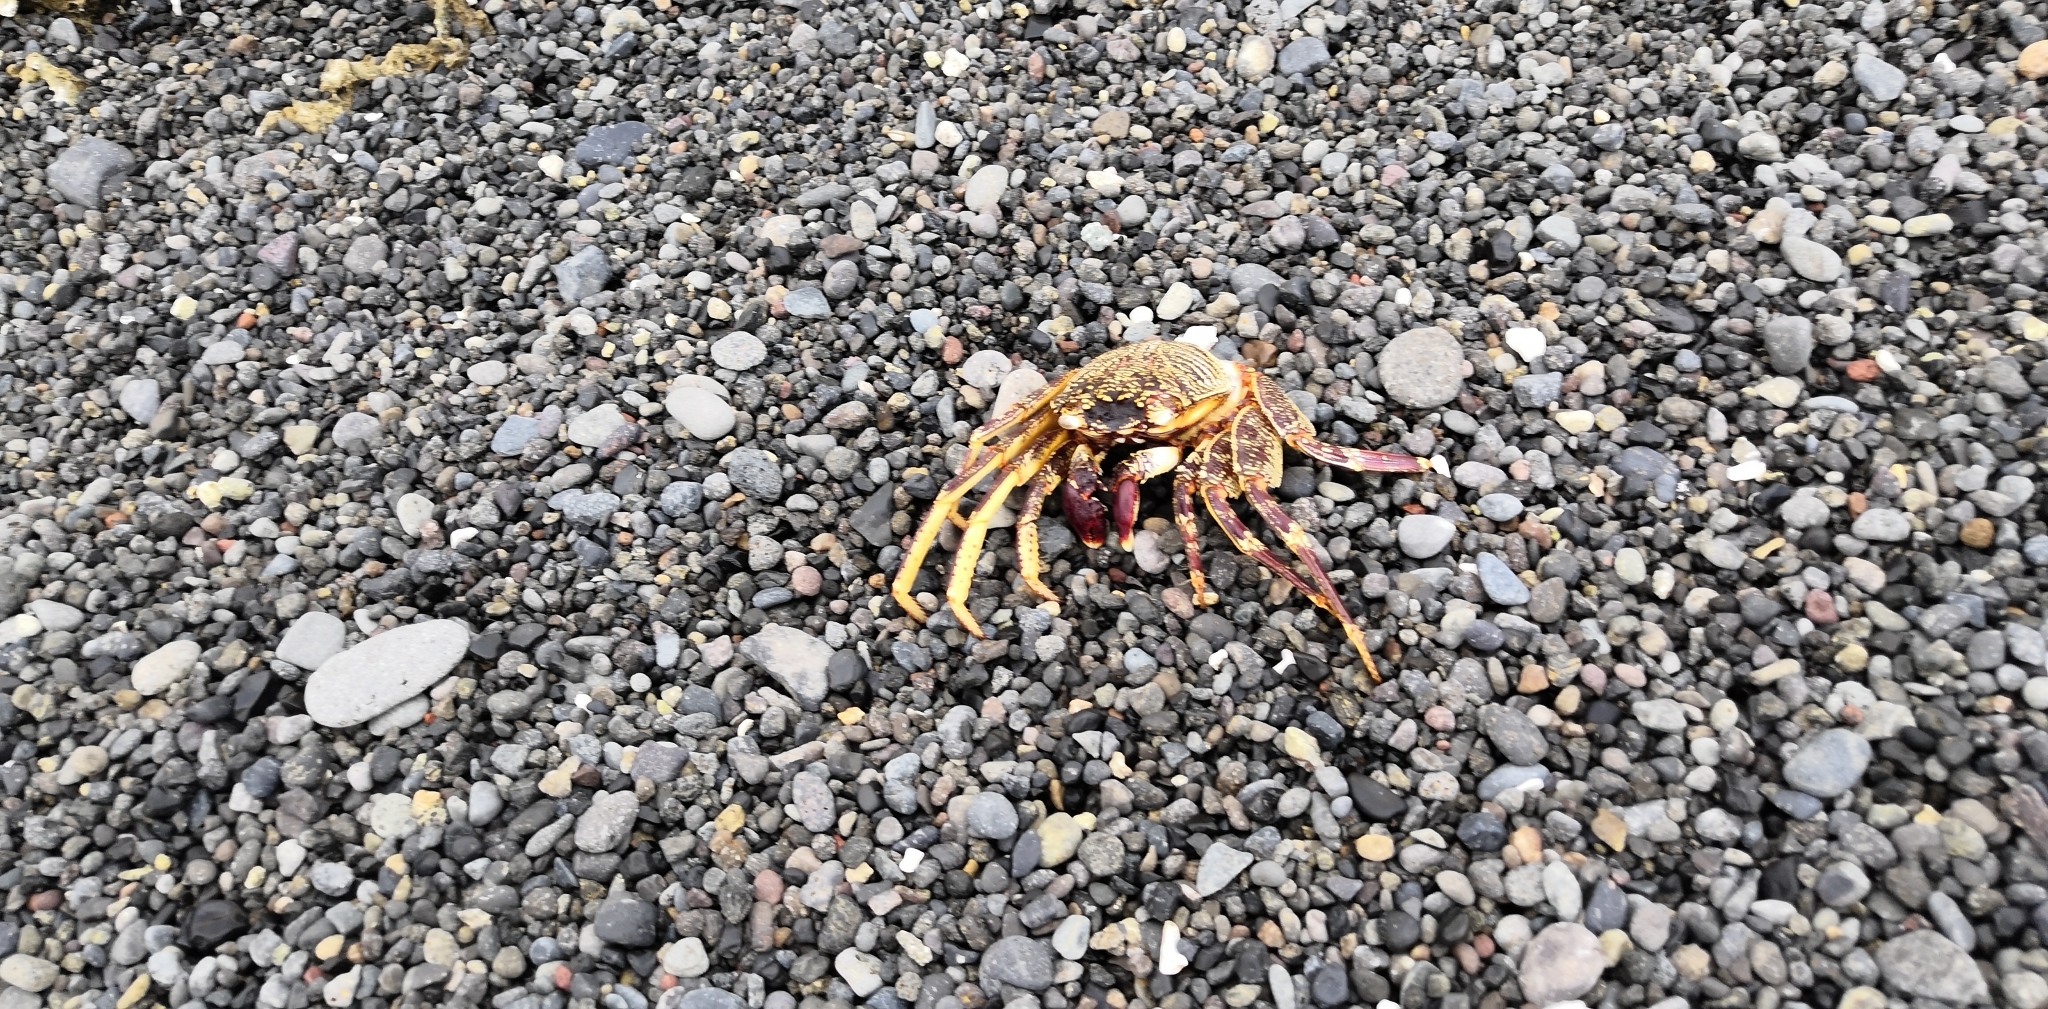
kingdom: Animalia
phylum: Arthropoda
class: Malacostraca
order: Decapoda
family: Grapsidae
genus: Grapsus
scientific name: Grapsus tenuicrustatus
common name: Natal lightfoot crab
